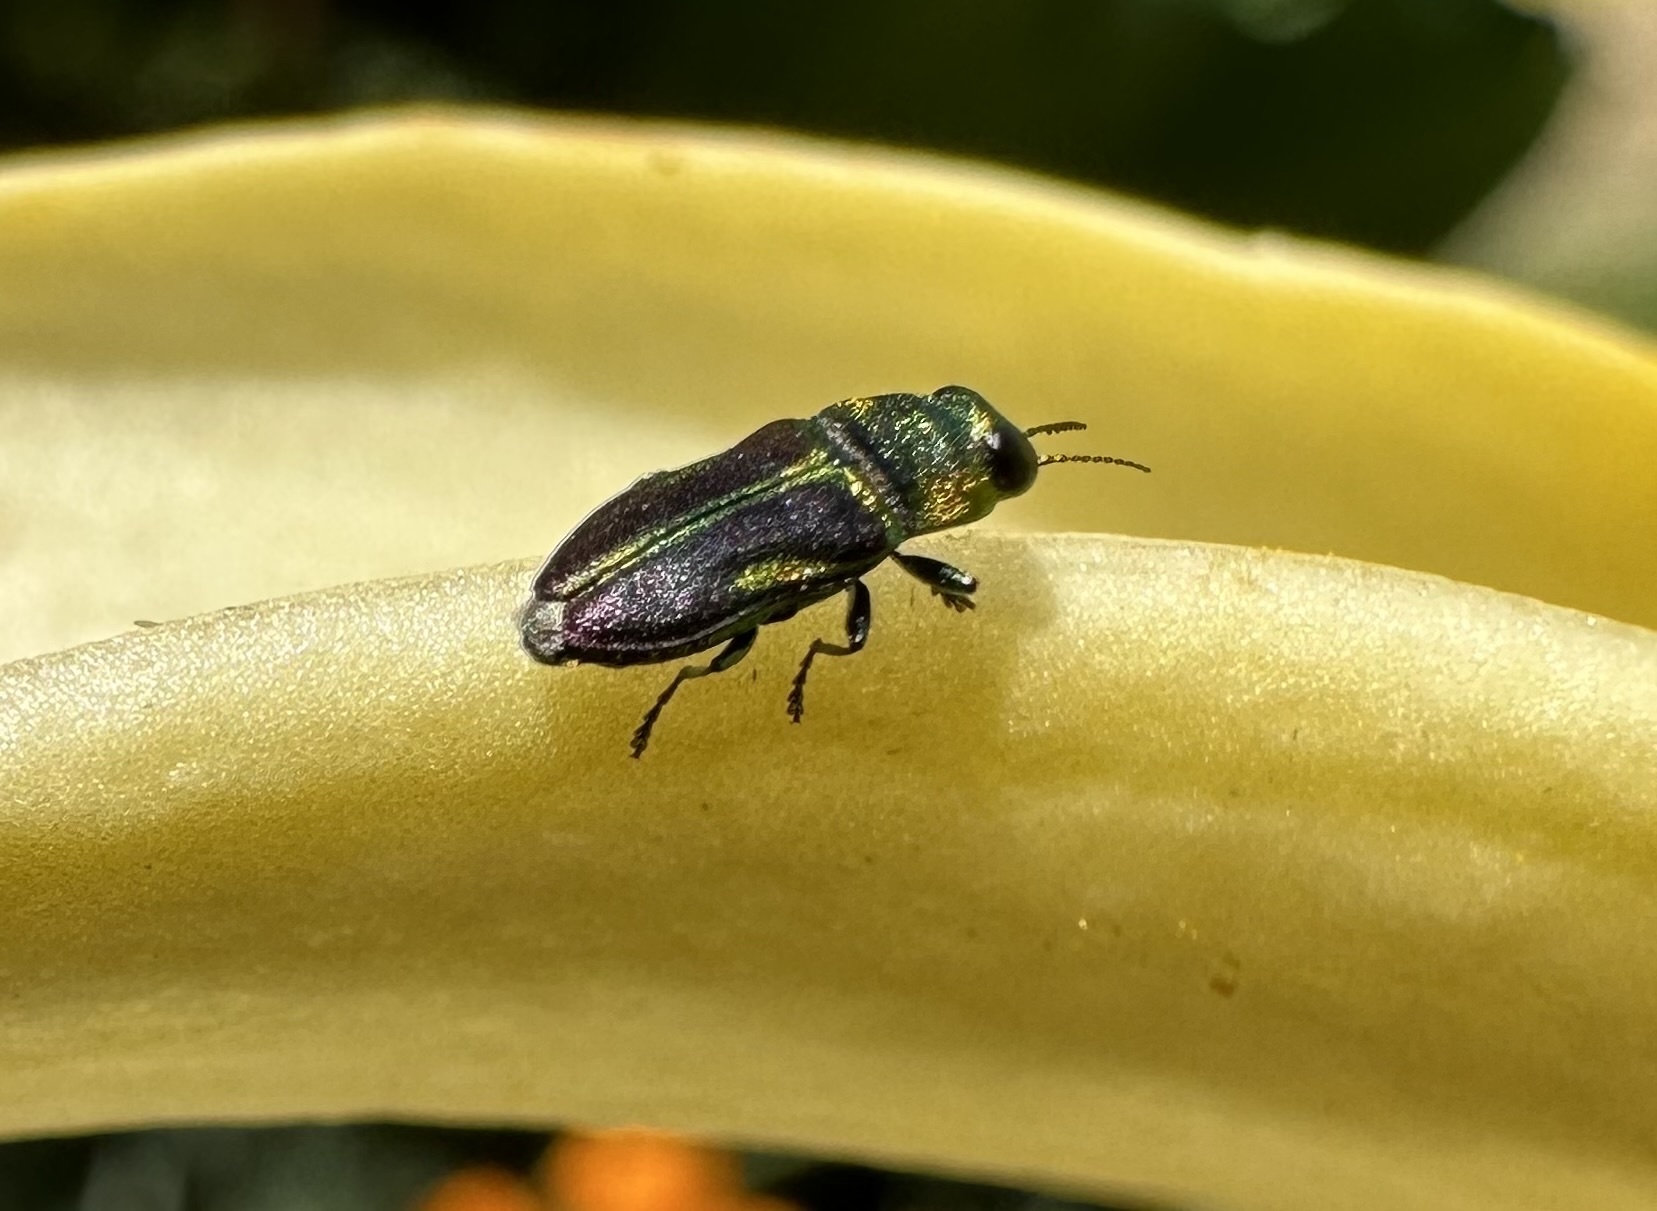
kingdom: Animalia
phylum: Arthropoda
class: Insecta
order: Coleoptera
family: Buprestidae
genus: Bilyaxia
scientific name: Bilyaxia concinna
